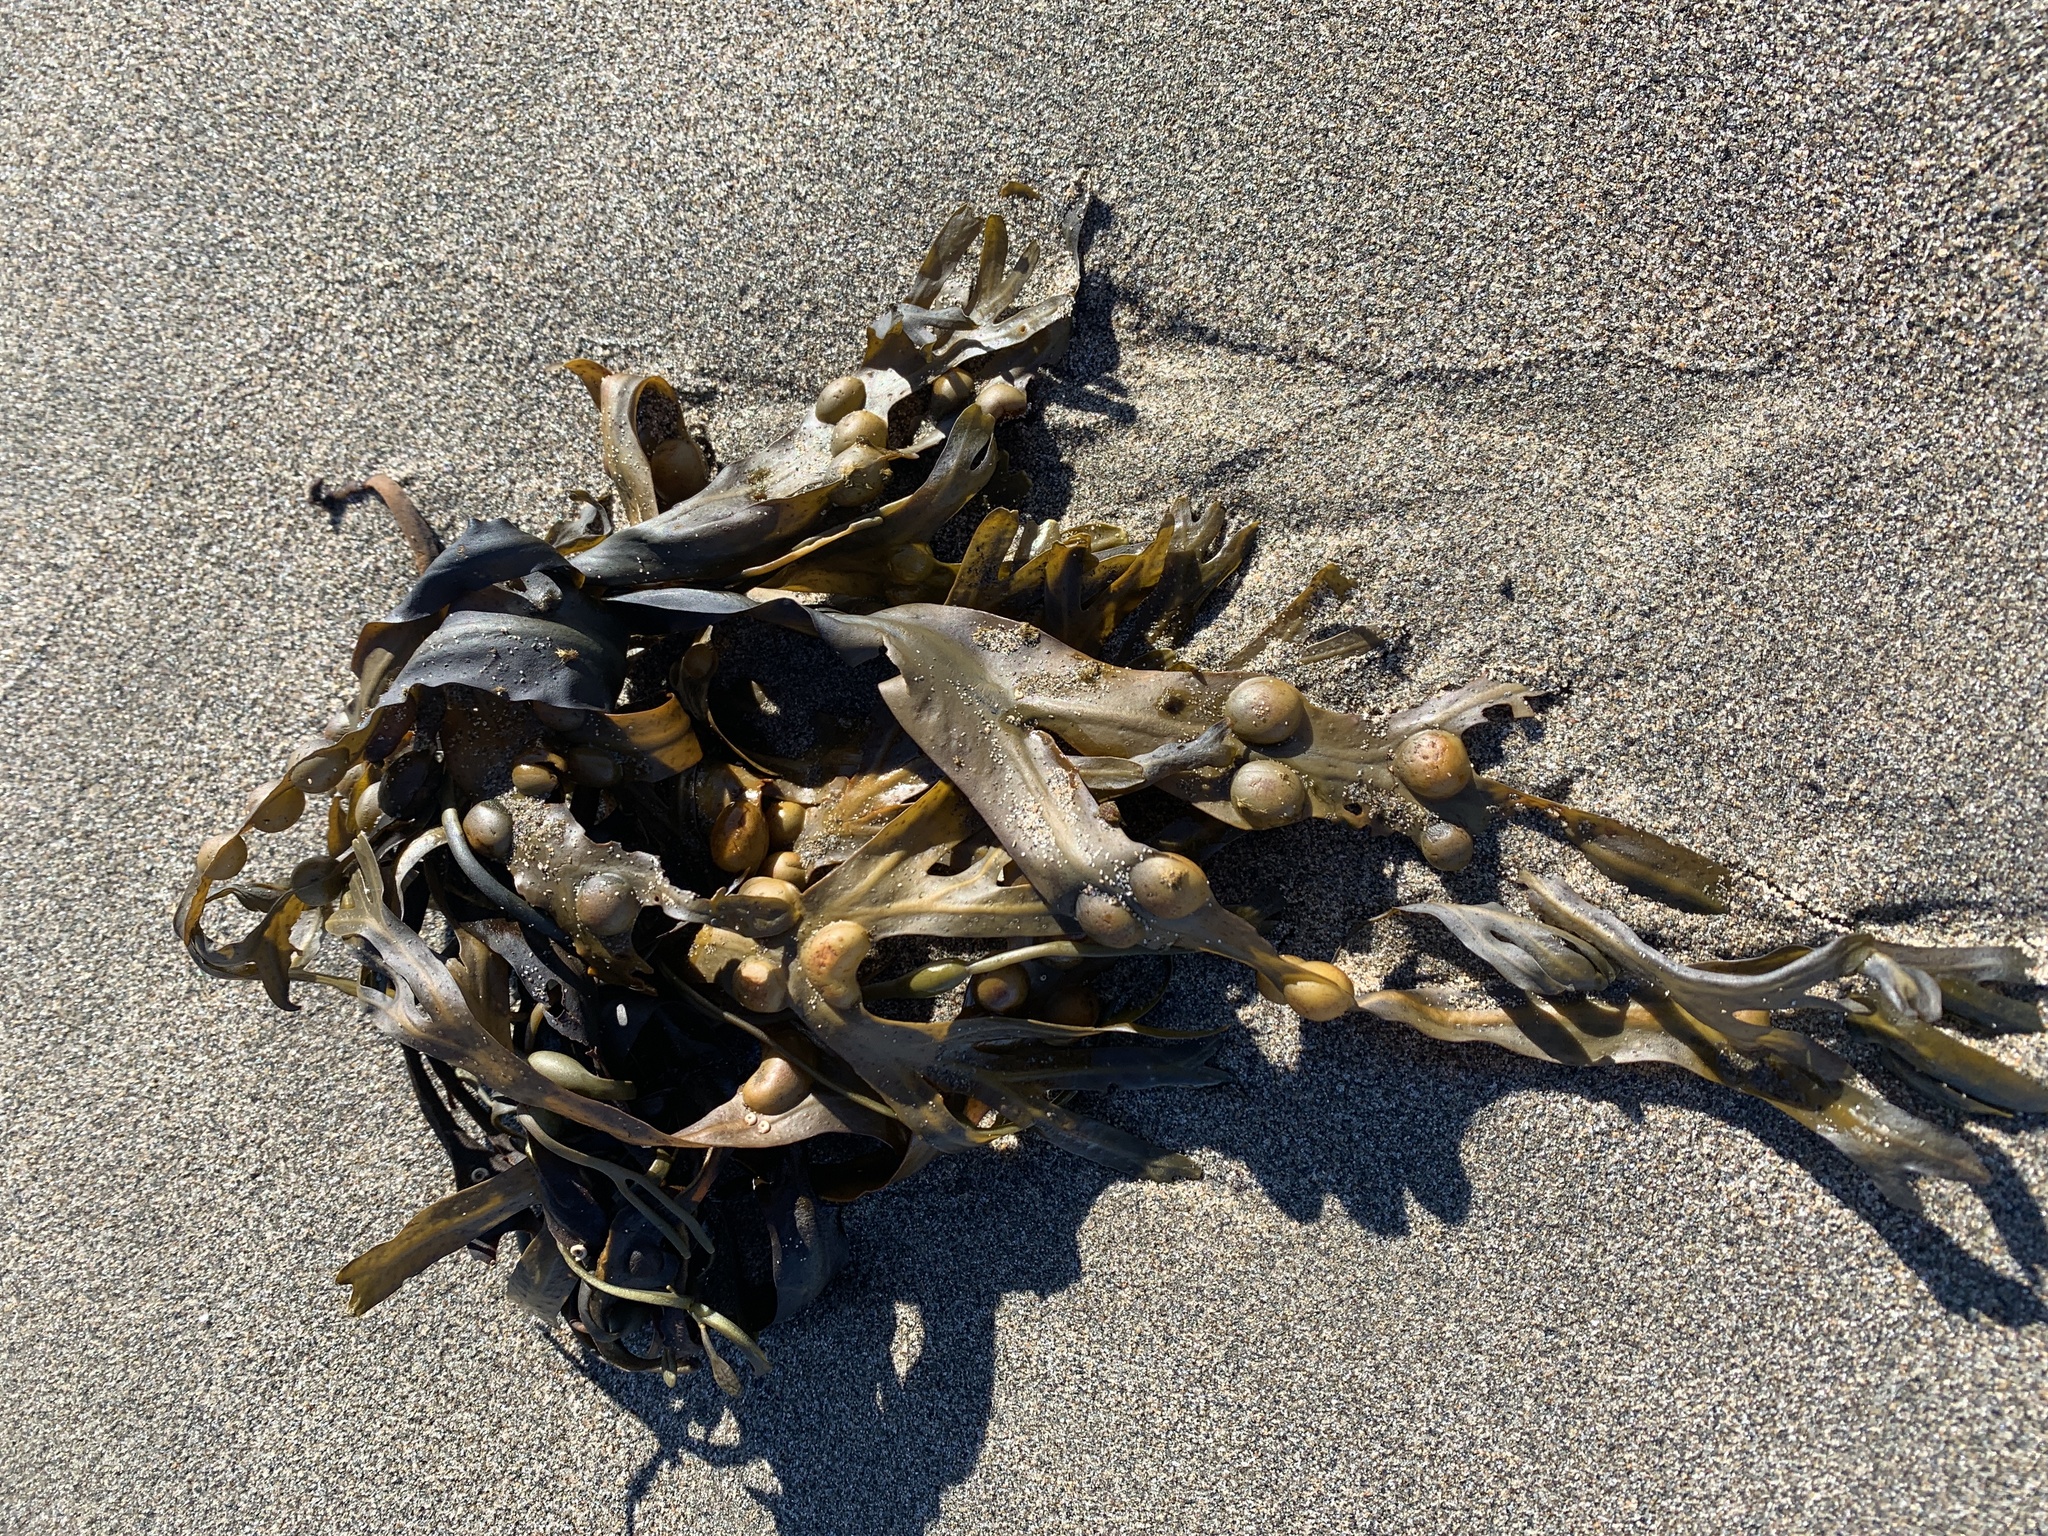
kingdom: Chromista
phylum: Ochrophyta
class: Phaeophyceae
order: Fucales
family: Fucaceae
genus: Fucus
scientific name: Fucus vesiculosus
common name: Bladder wrack
